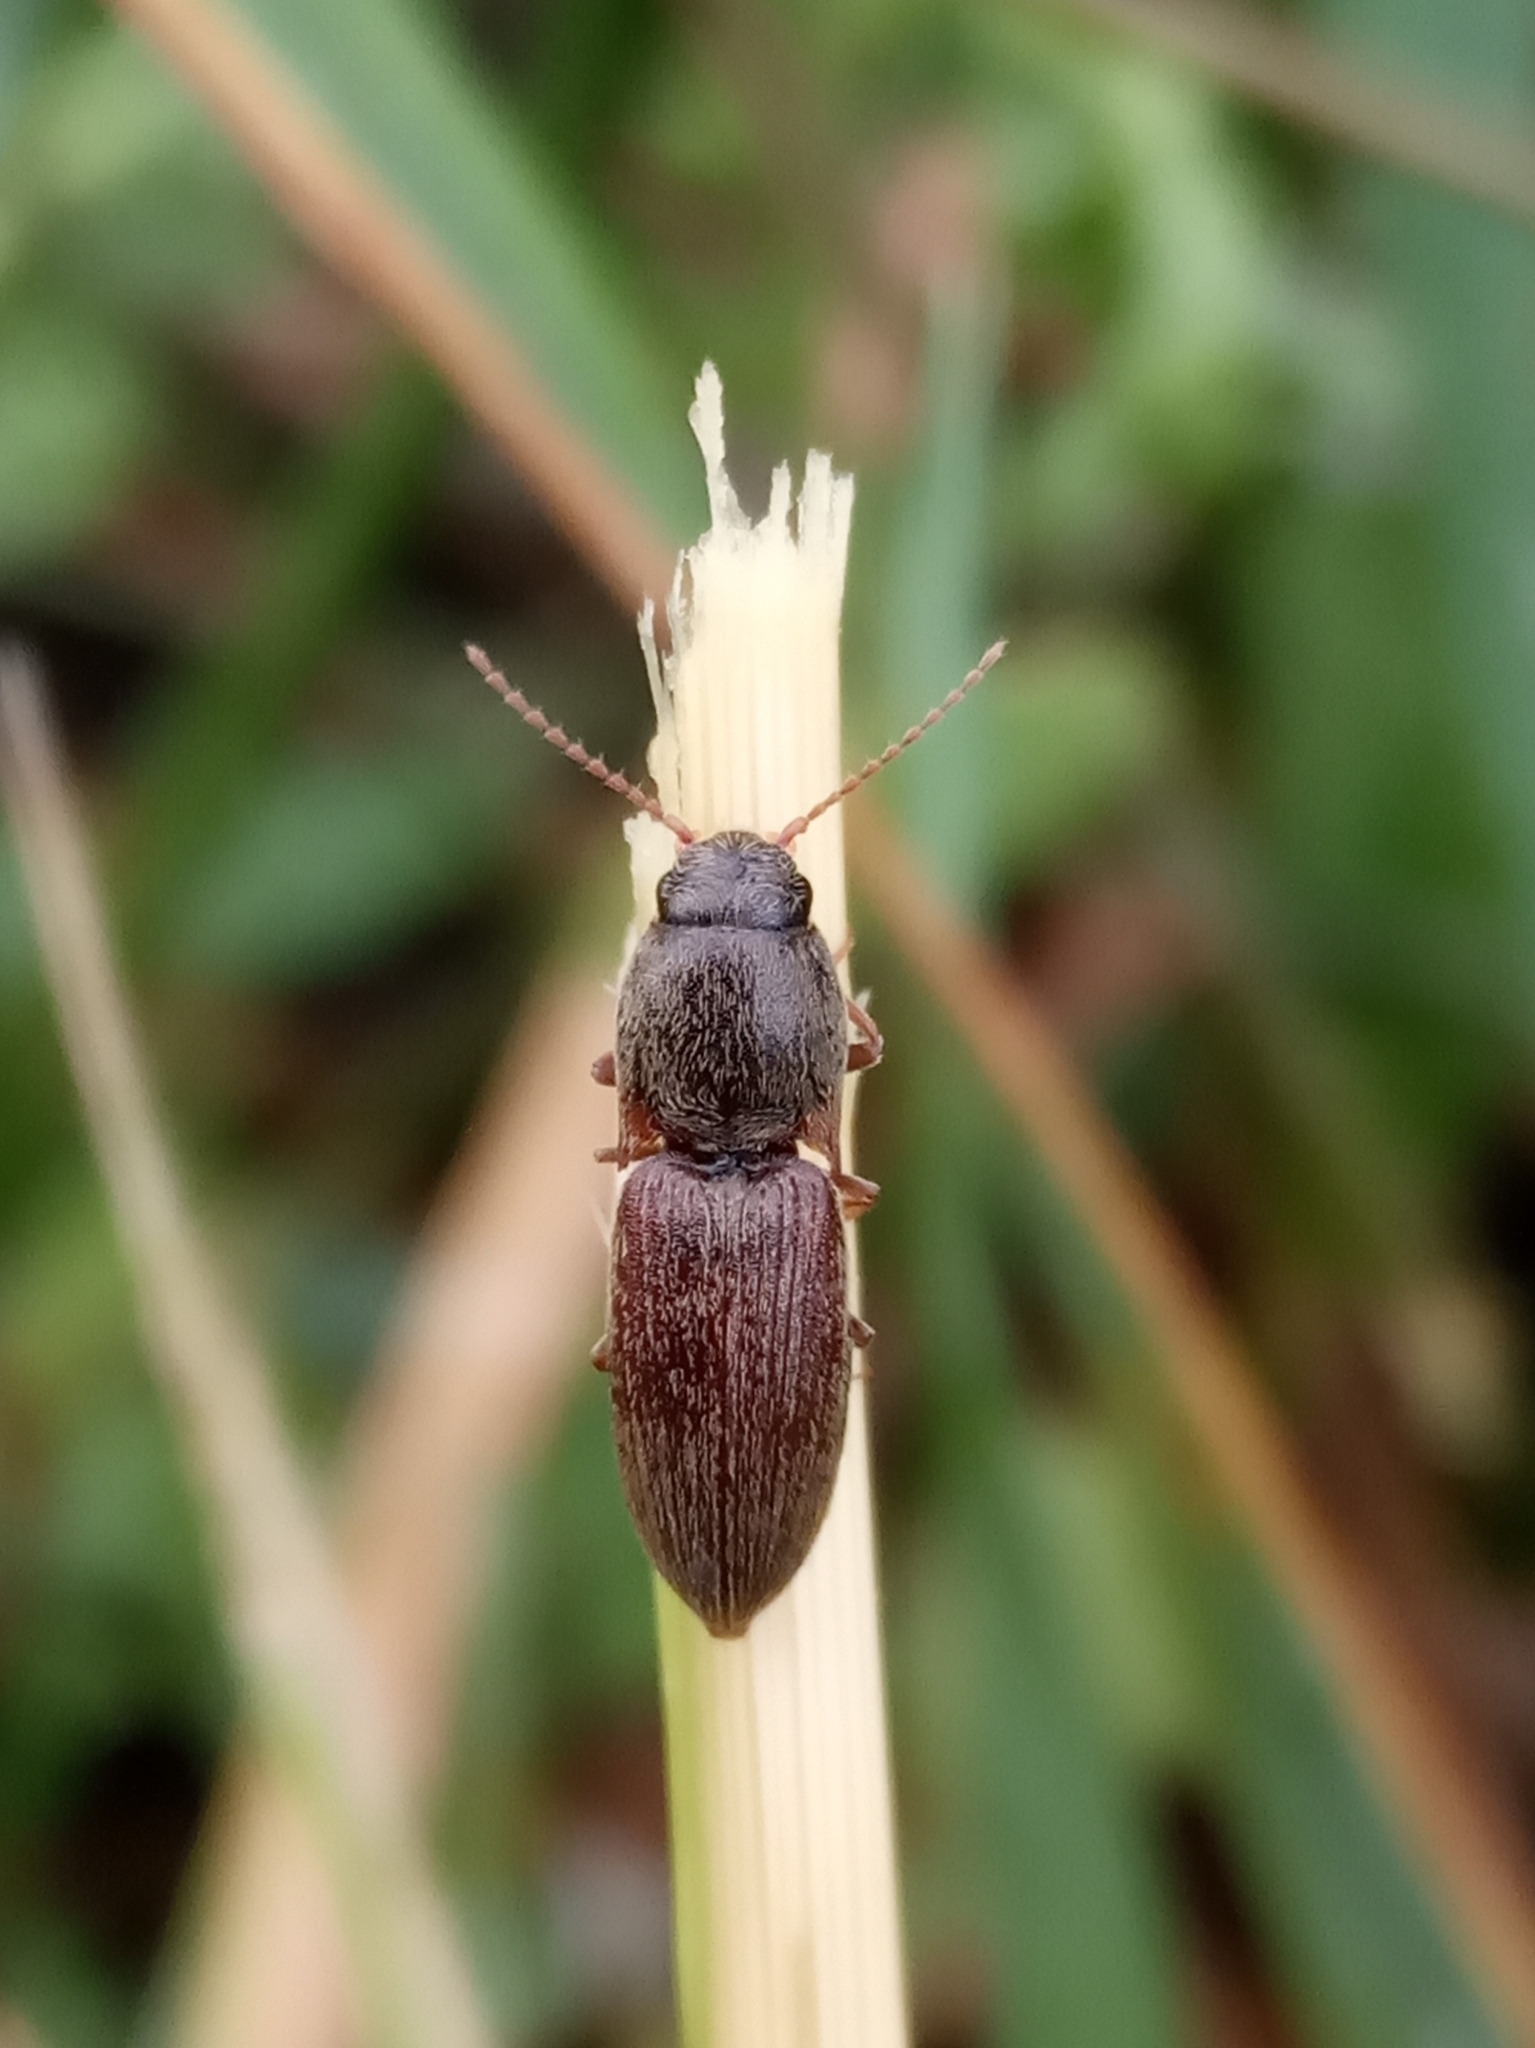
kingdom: Animalia
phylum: Arthropoda
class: Insecta
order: Coleoptera
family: Elateridae
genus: Agriotes
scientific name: Agriotes
